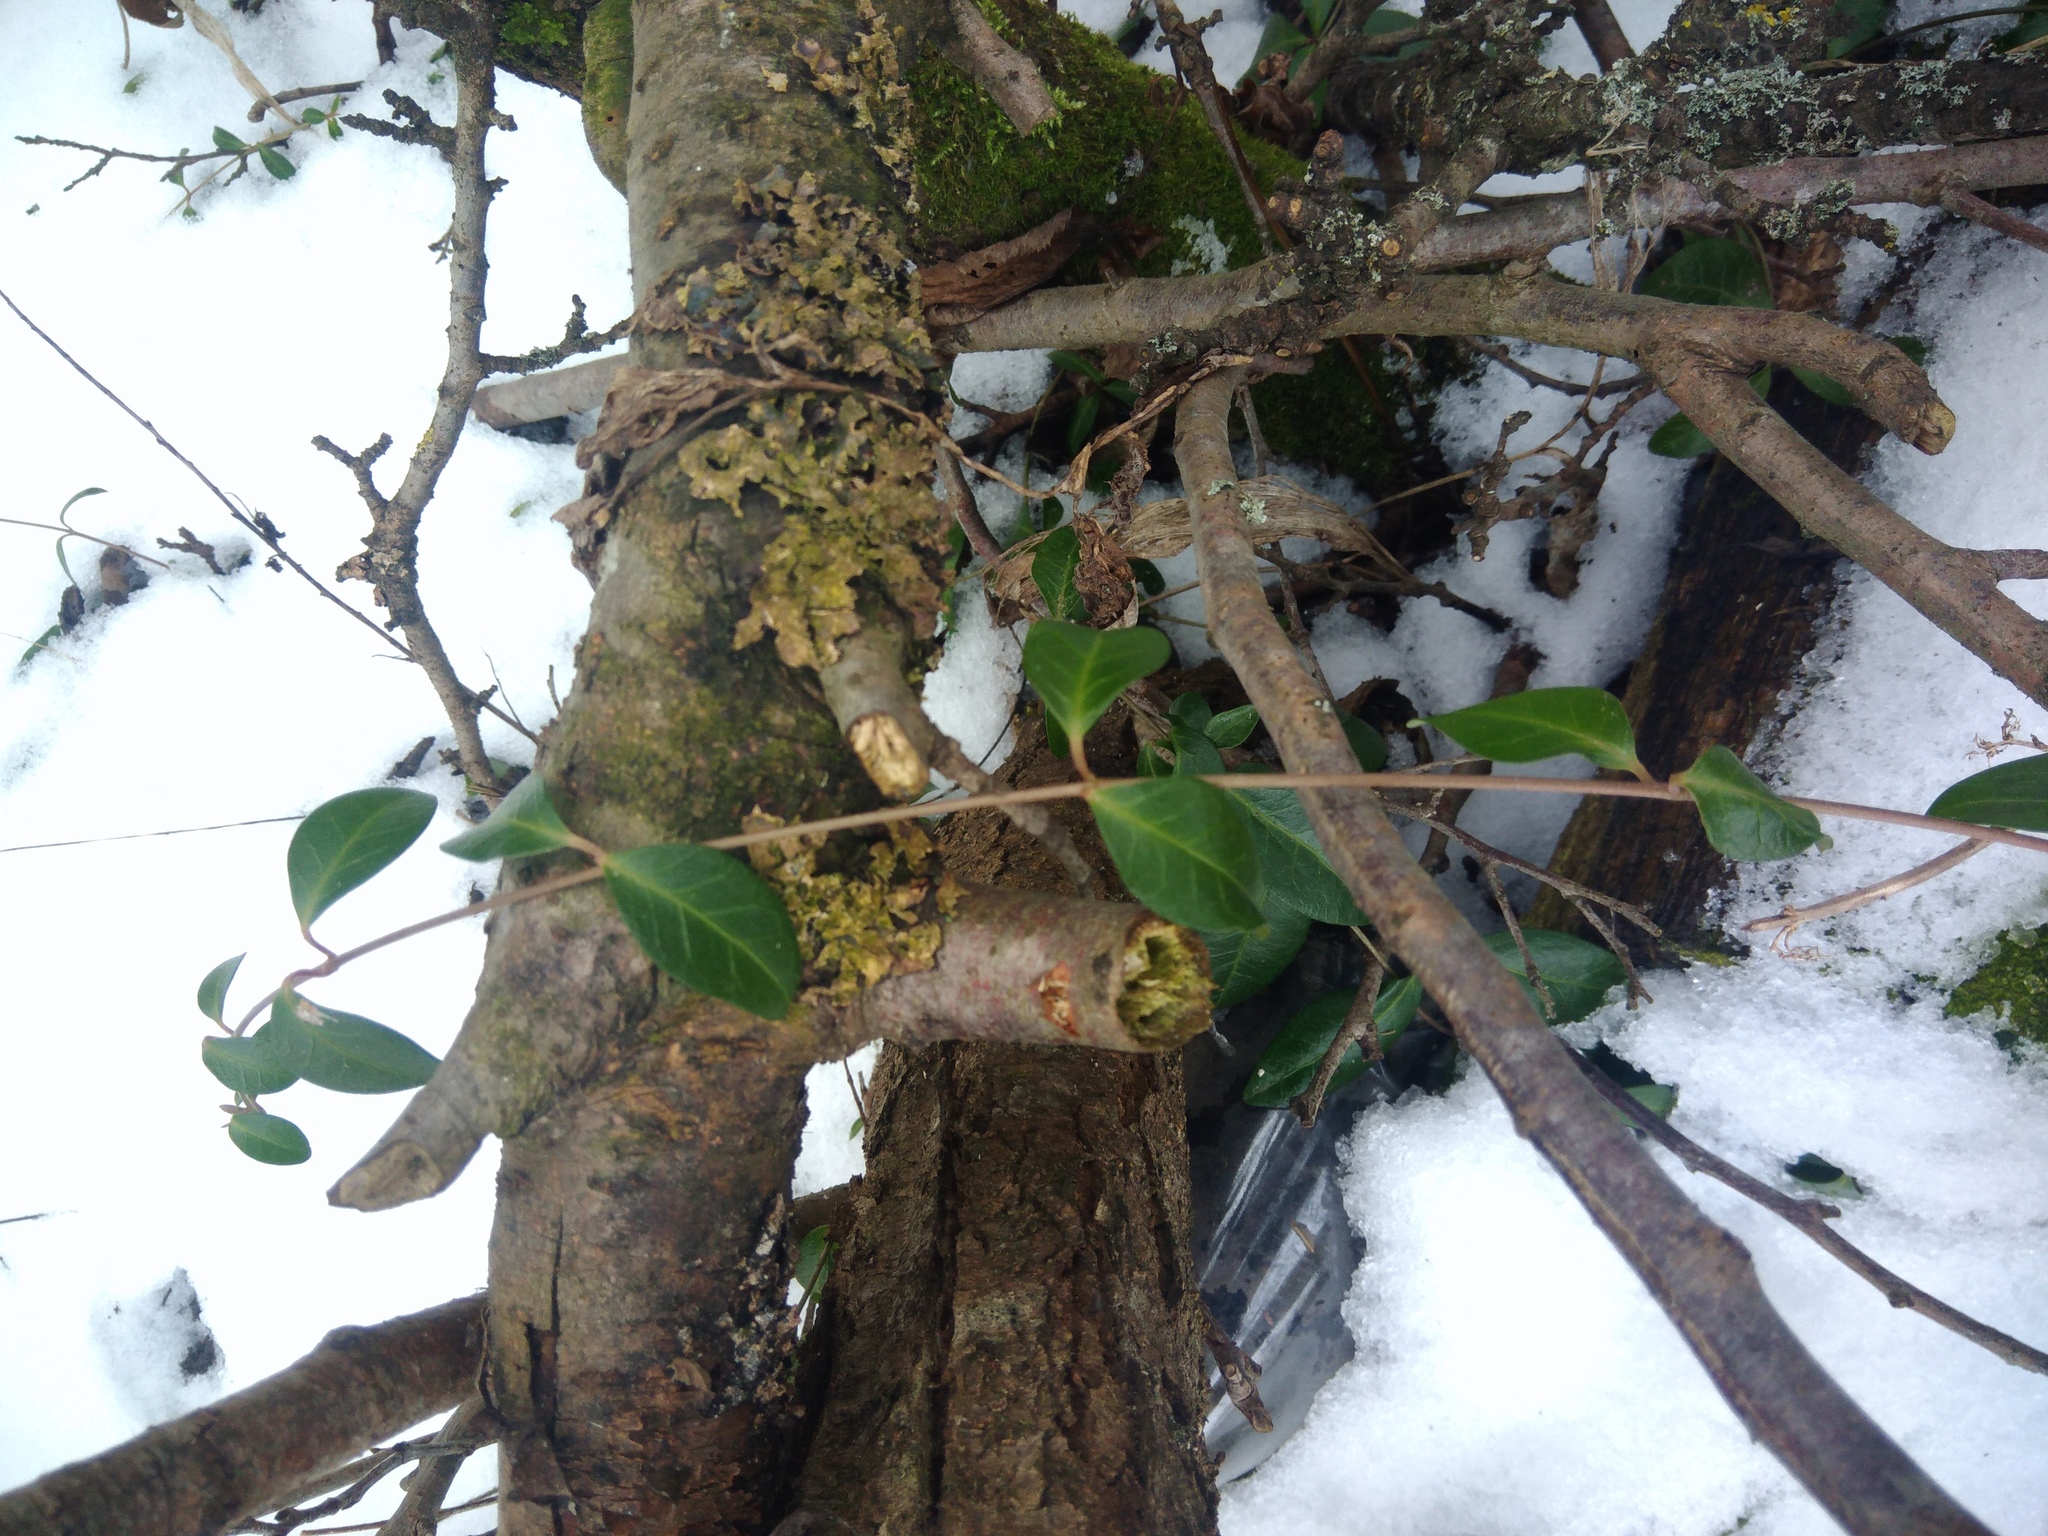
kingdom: Plantae
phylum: Tracheophyta
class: Magnoliopsida
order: Gentianales
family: Apocynaceae
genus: Vinca
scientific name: Vinca minor
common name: Lesser periwinkle
